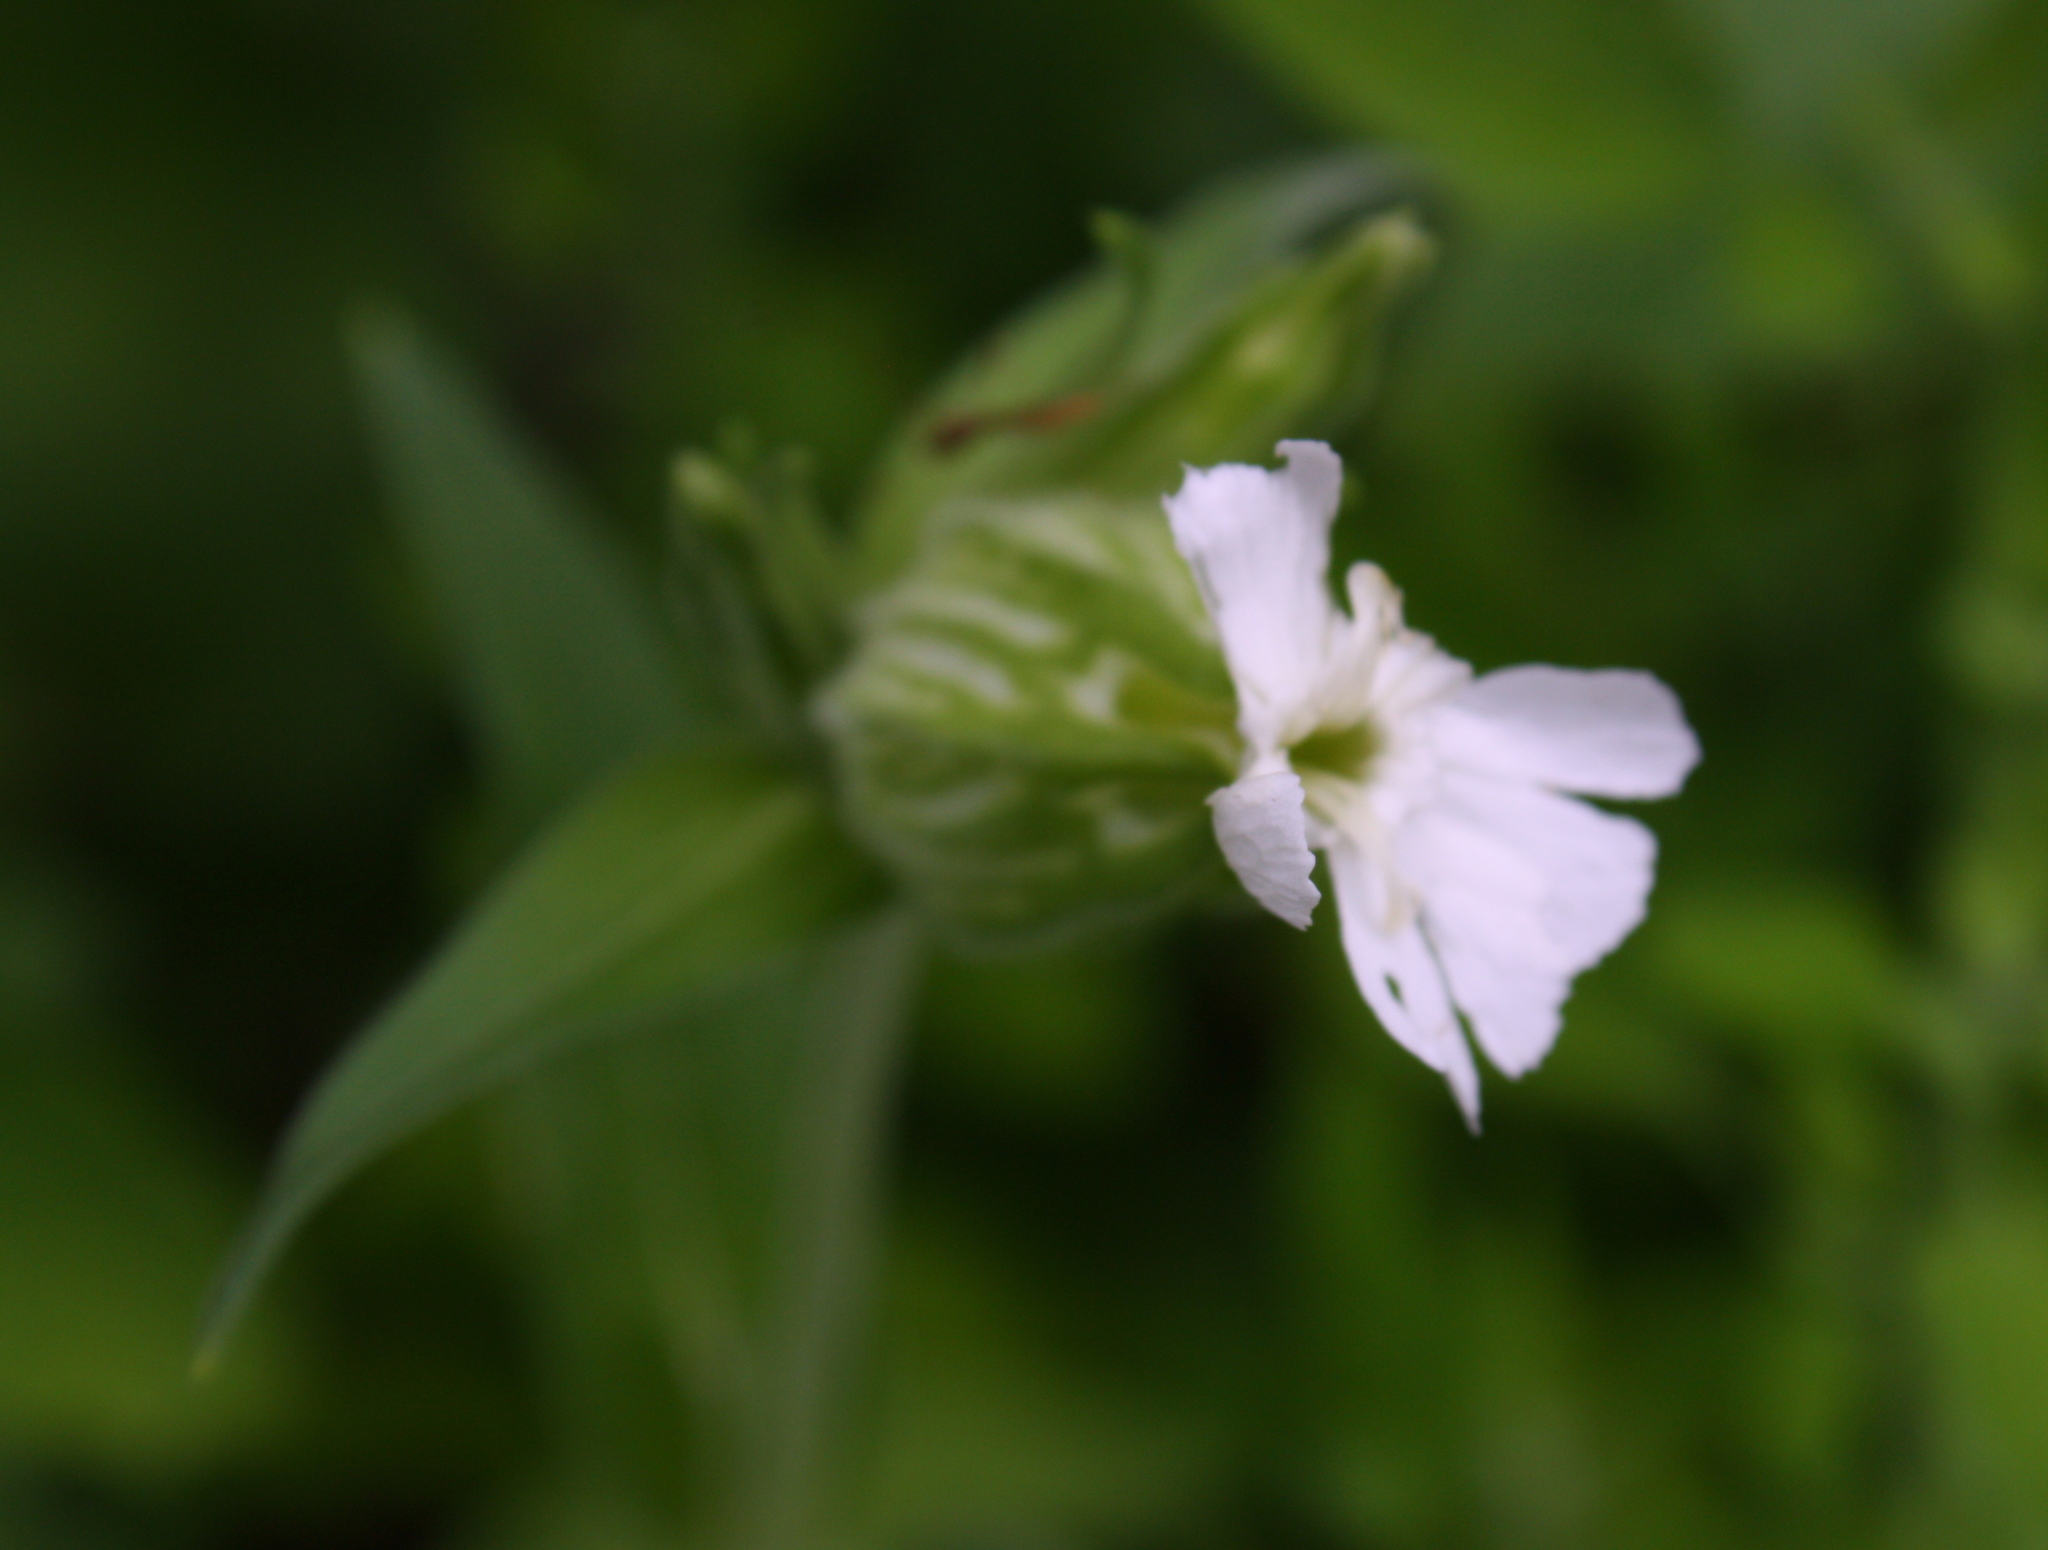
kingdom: Plantae
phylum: Tracheophyta
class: Magnoliopsida
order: Caryophyllales
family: Caryophyllaceae
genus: Silene
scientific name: Silene latifolia
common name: White campion
